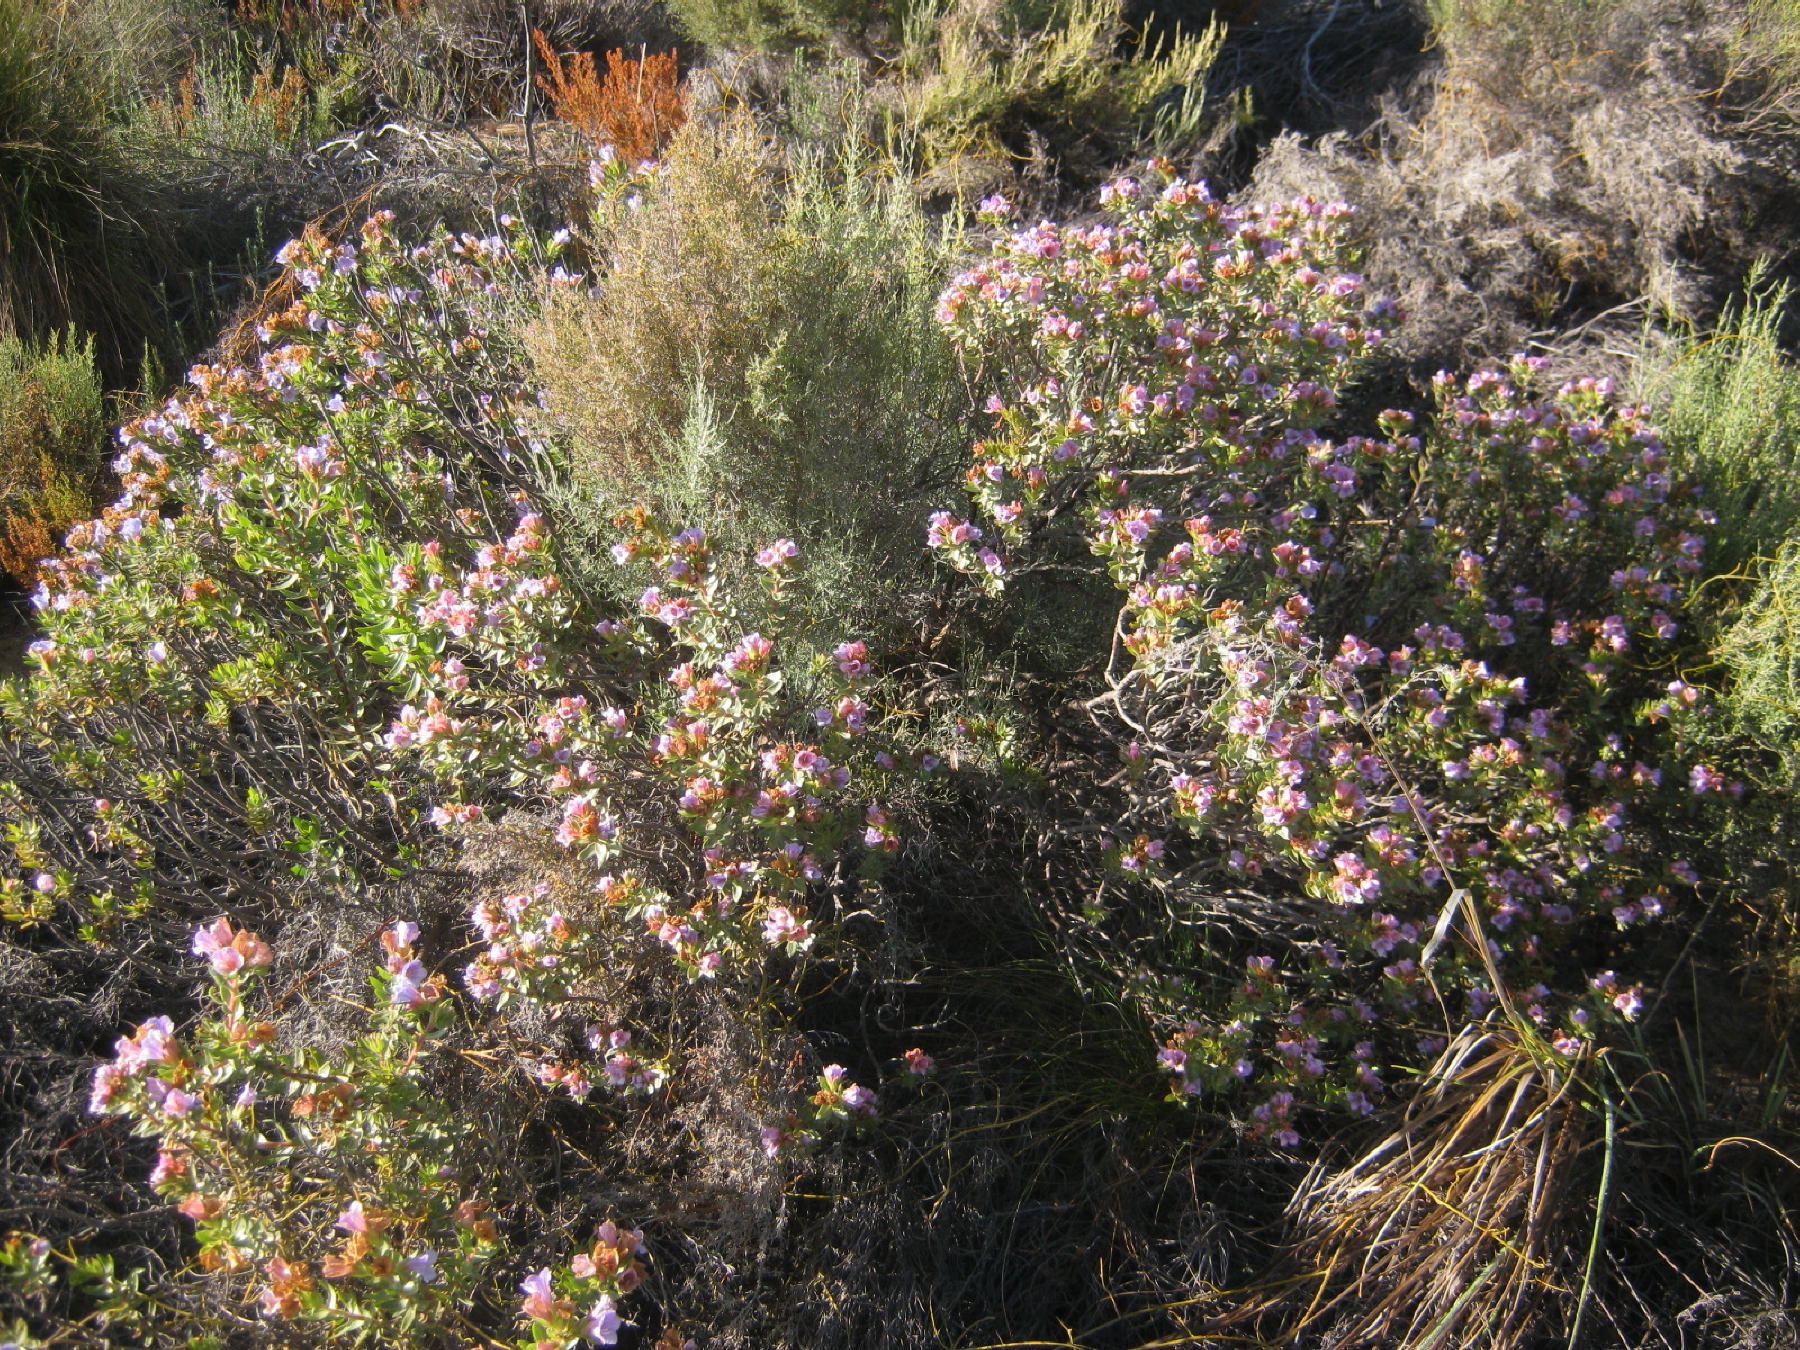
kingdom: Plantae
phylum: Tracheophyta
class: Magnoliopsida
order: Boraginales
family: Boraginaceae
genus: Lobostemon
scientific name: Lobostemon fruticosus
